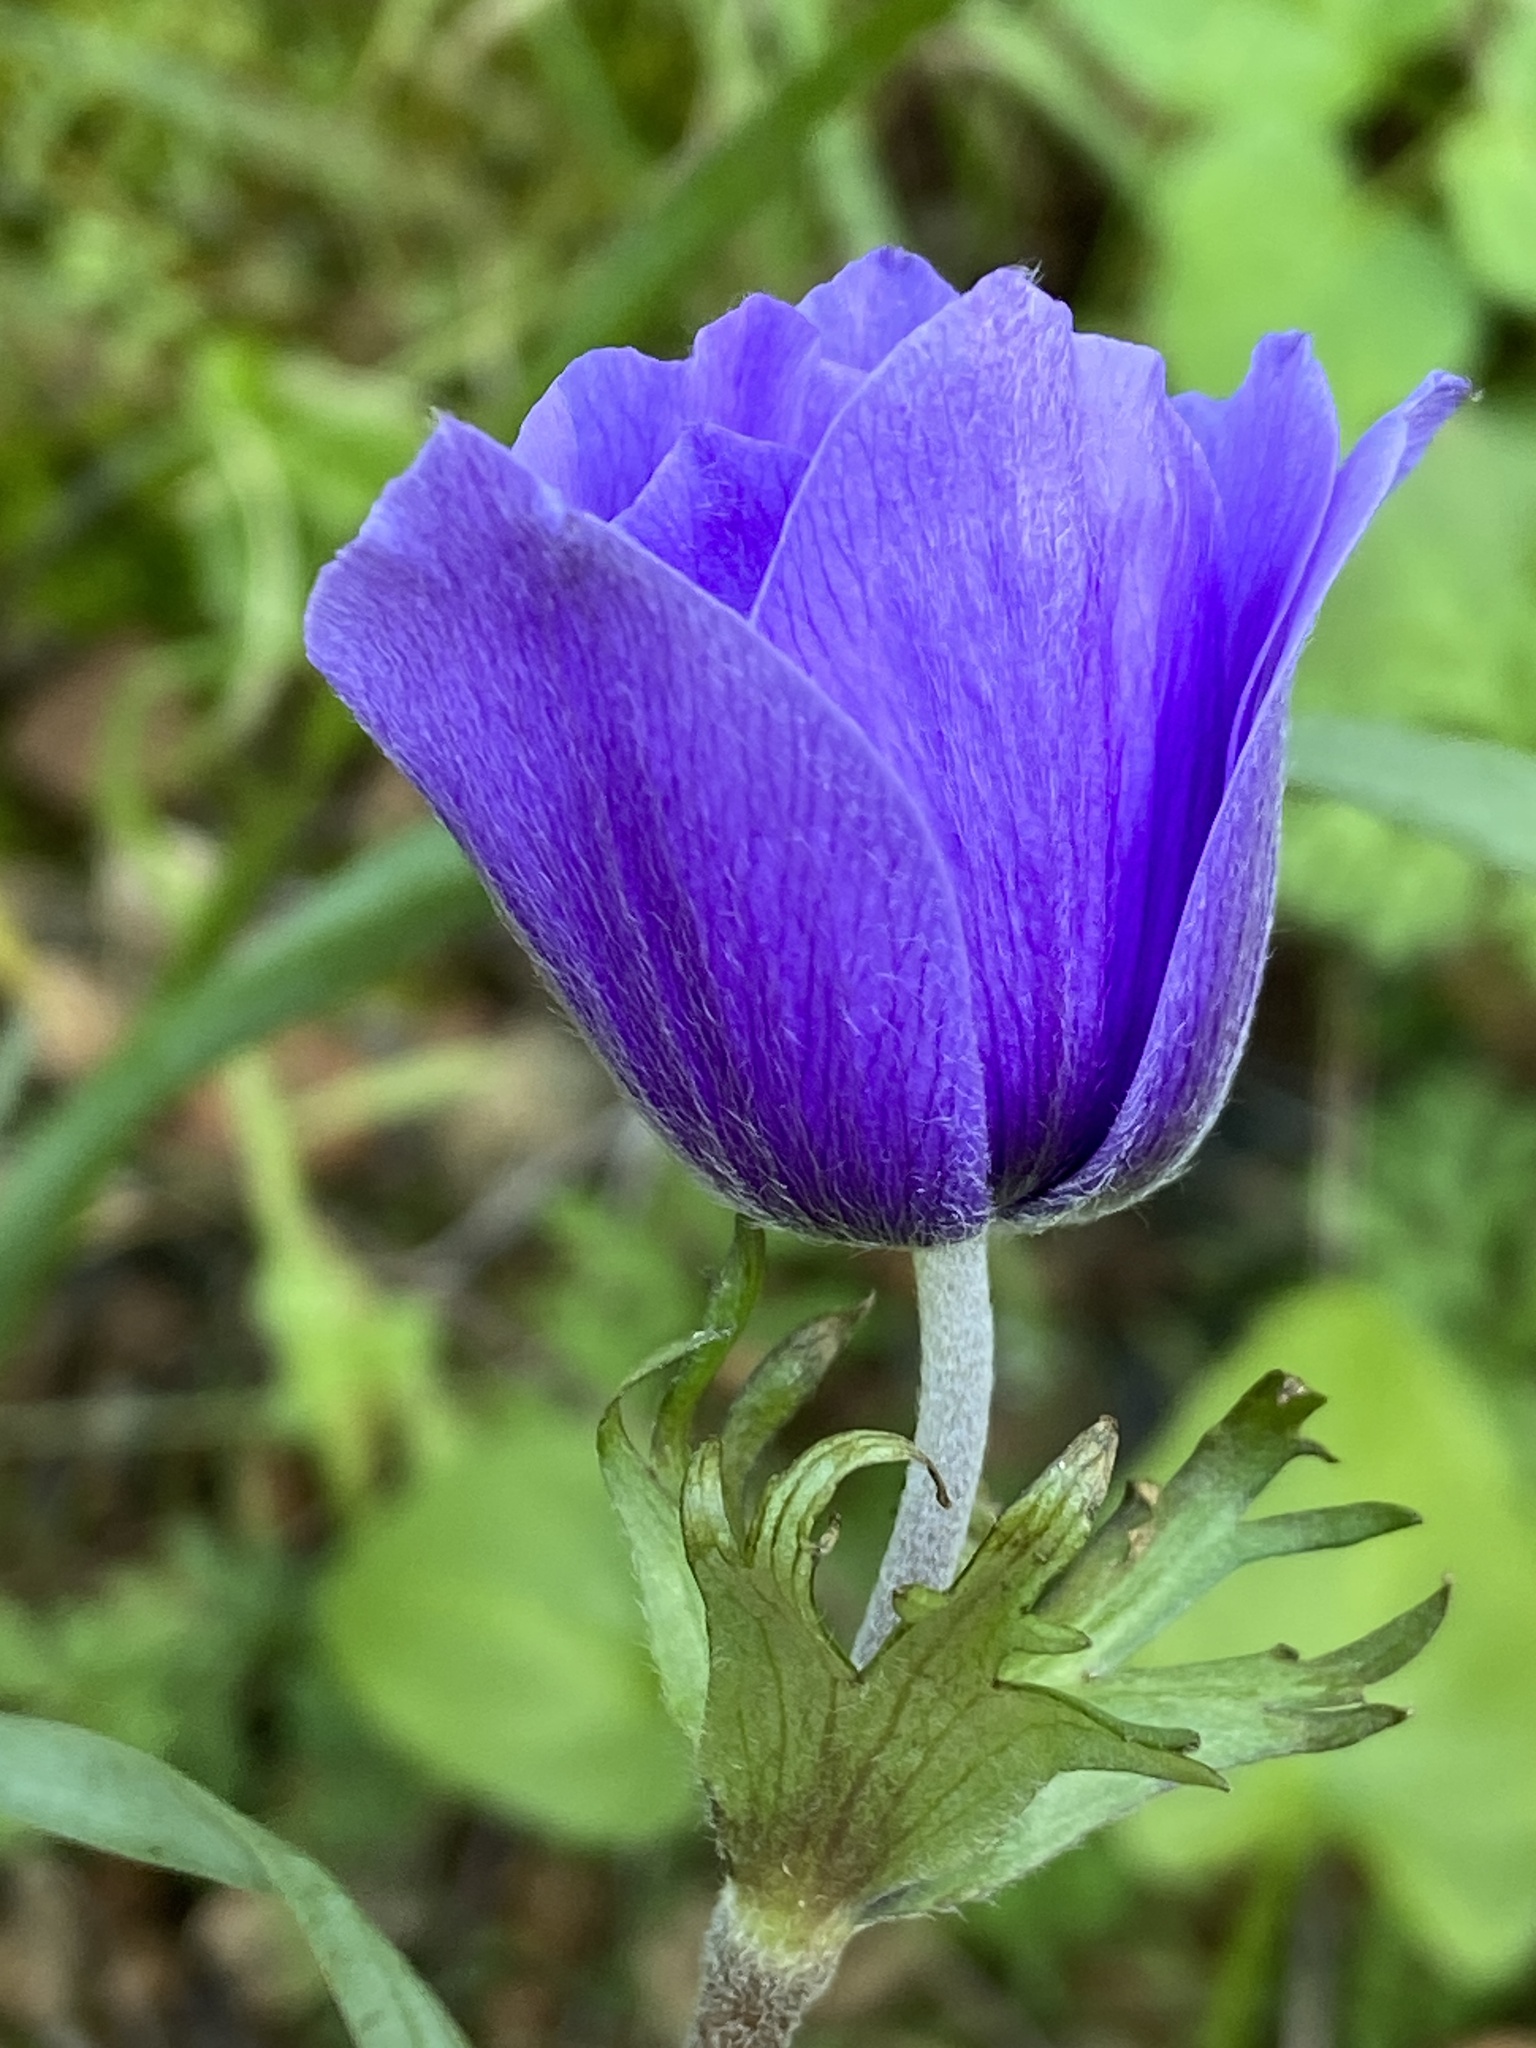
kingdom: Plantae
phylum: Tracheophyta
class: Magnoliopsida
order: Ranunculales
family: Ranunculaceae
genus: Anemone
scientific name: Anemone coronaria
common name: Poppy anemone
